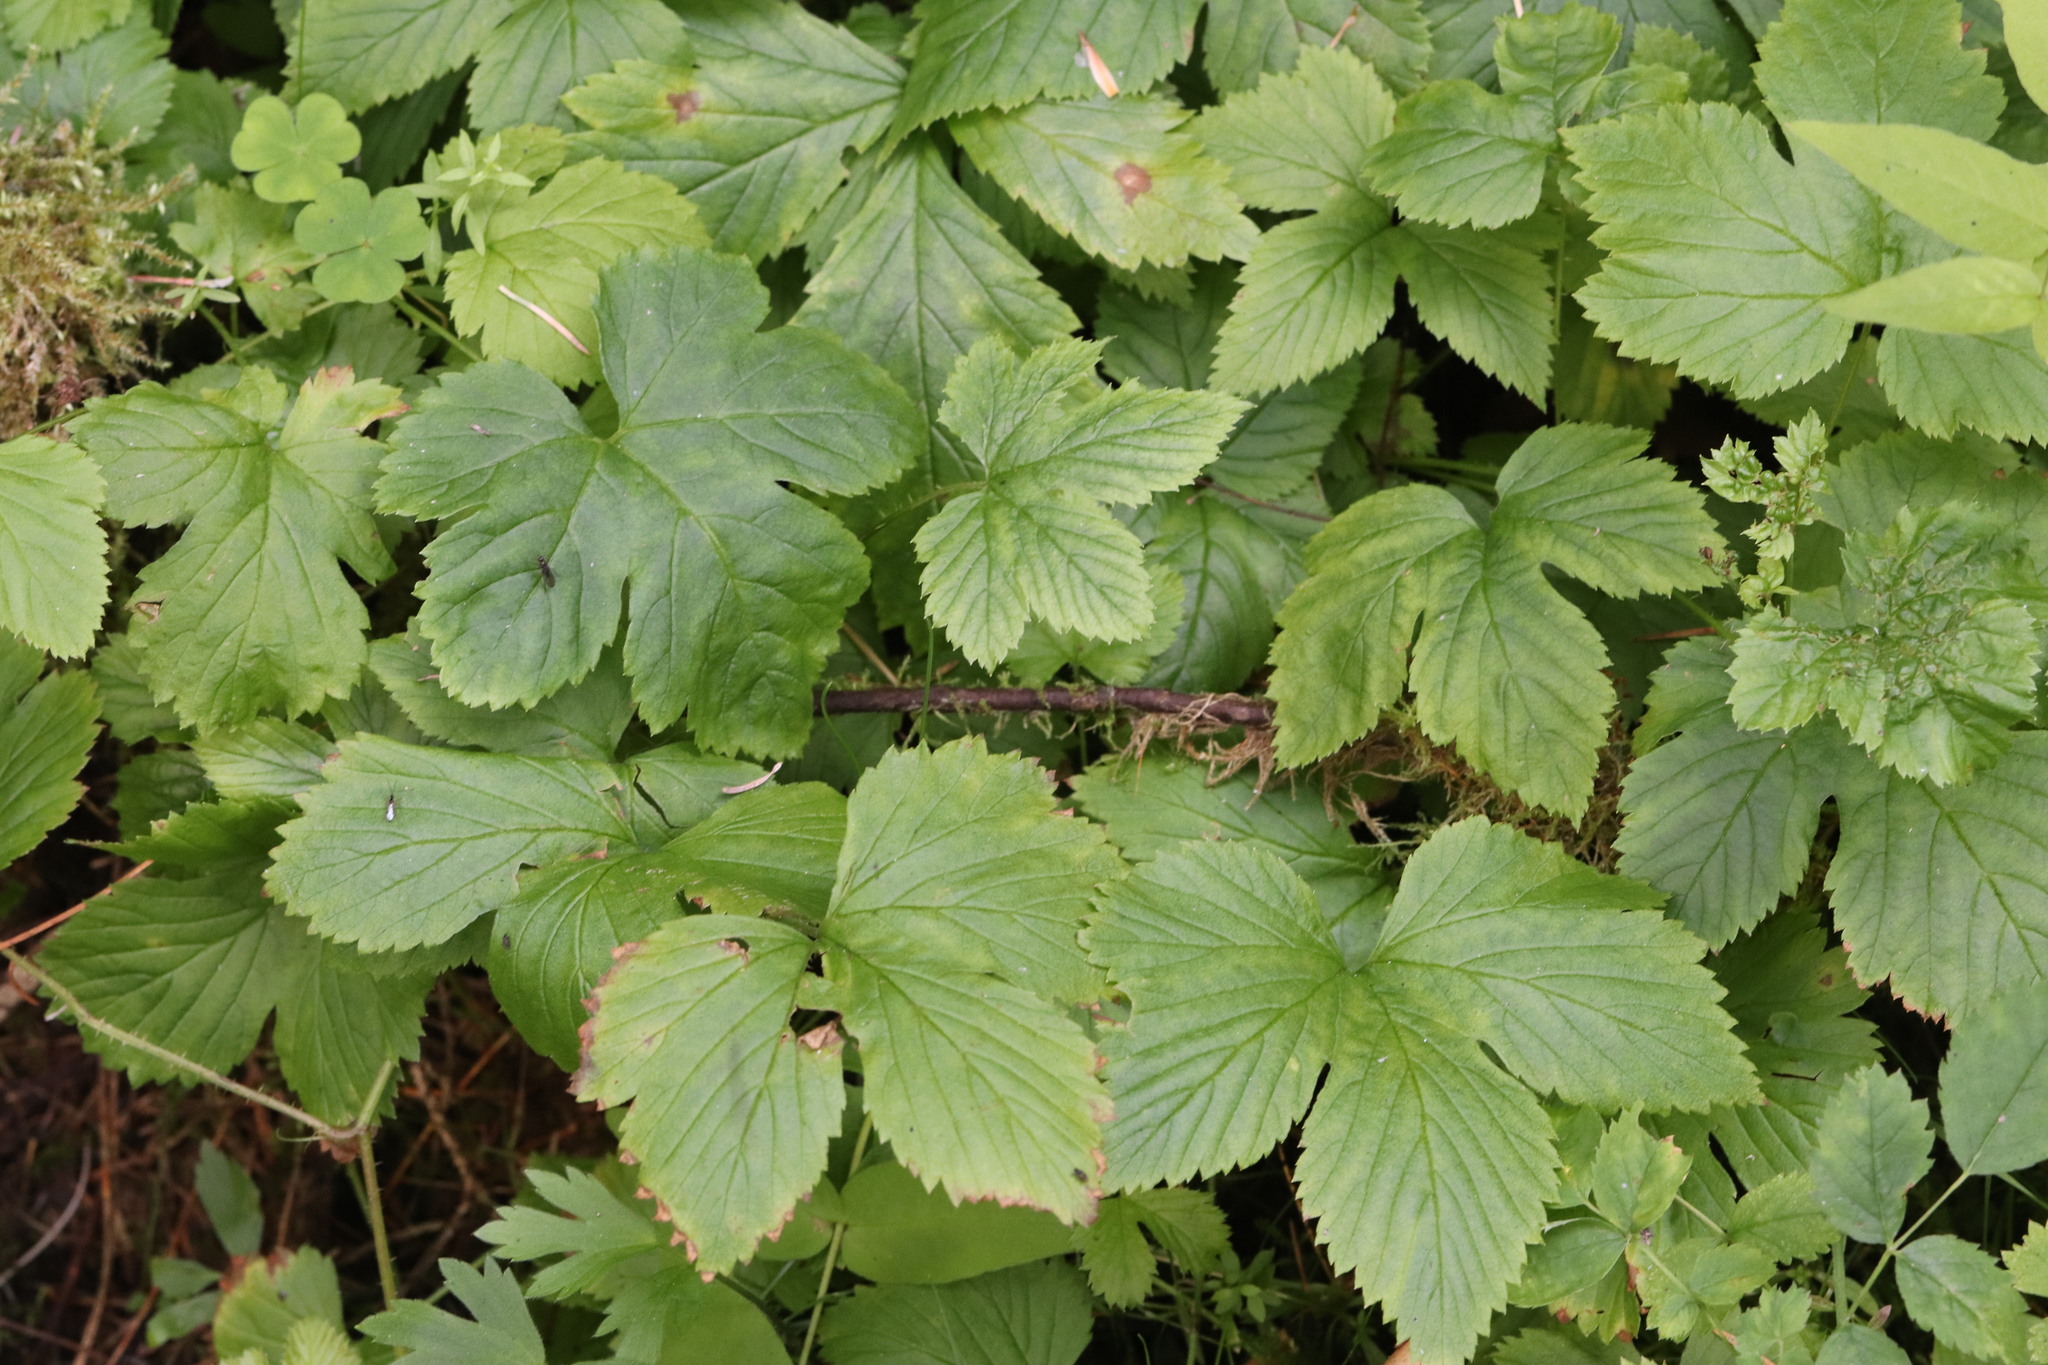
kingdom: Plantae
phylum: Tracheophyta
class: Magnoliopsida
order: Rosales
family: Rosaceae
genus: Rubus
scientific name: Rubus humulifolius
